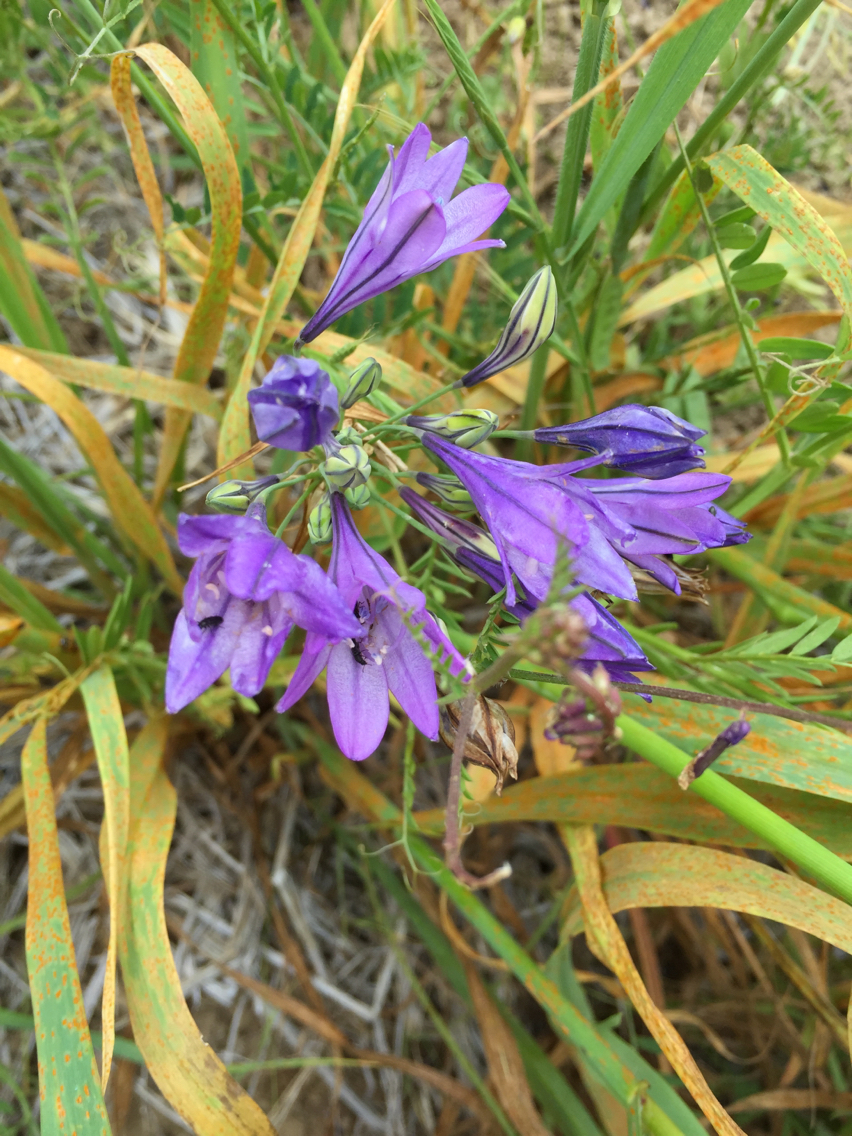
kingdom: Plantae
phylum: Tracheophyta
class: Liliopsida
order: Asparagales
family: Asparagaceae
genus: Triteleia
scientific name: Triteleia laxa
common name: Triplet-lily
